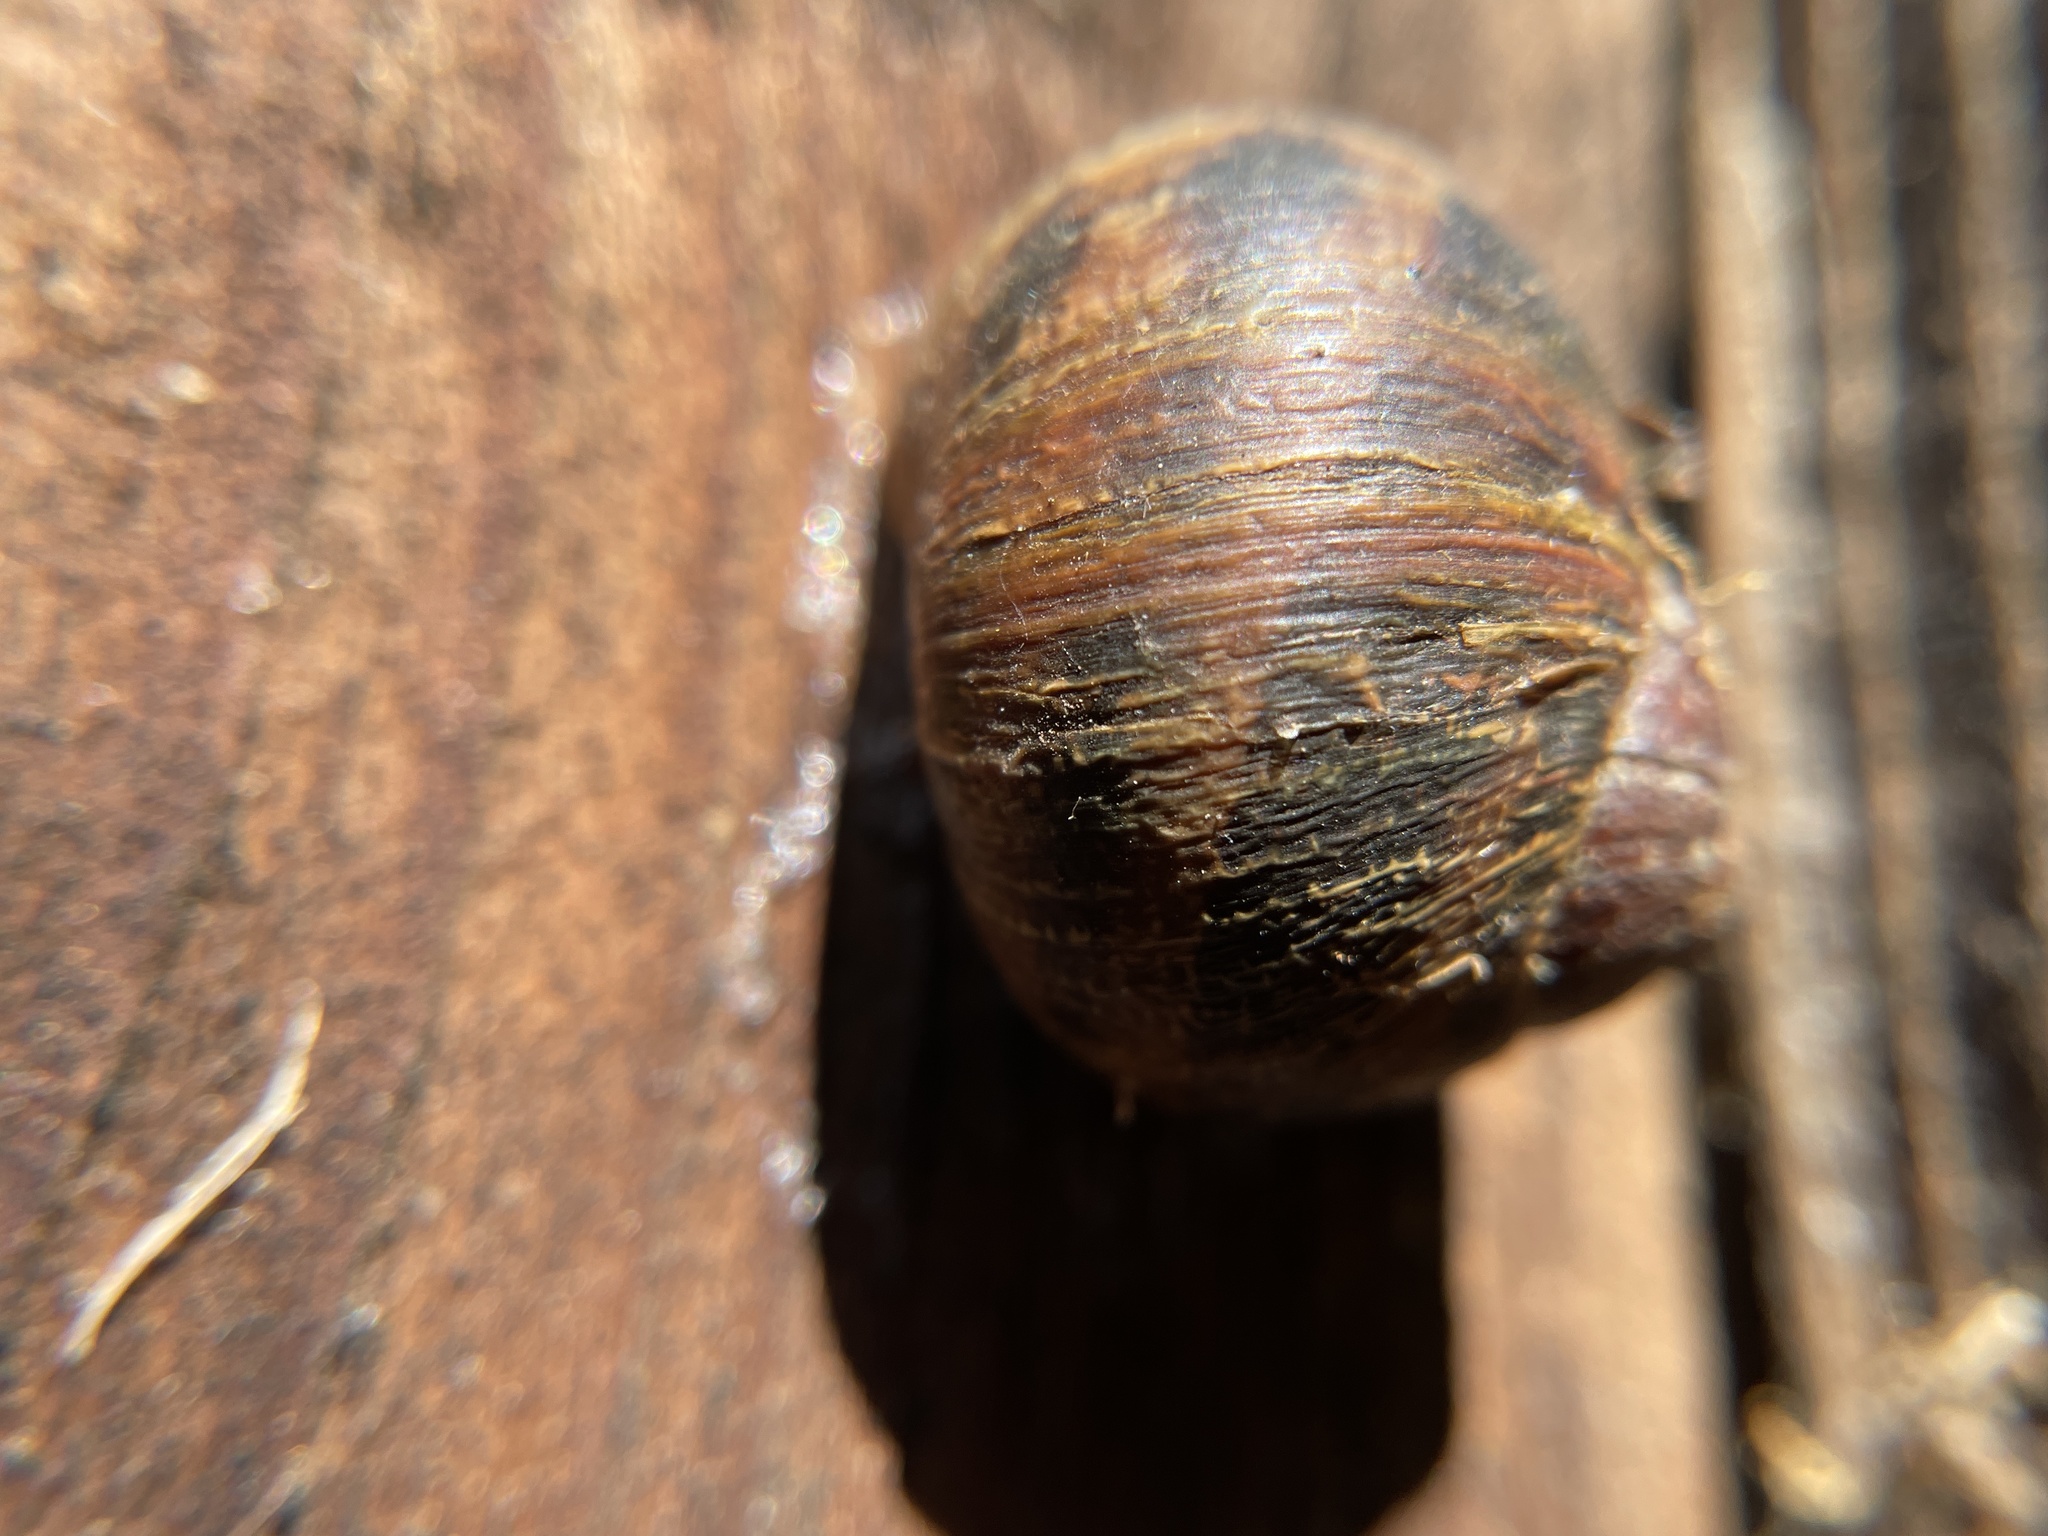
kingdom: Animalia
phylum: Mollusca
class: Gastropoda
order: Stylommatophora
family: Helicidae
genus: Cornu
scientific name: Cornu aspersum
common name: Brown garden snail
